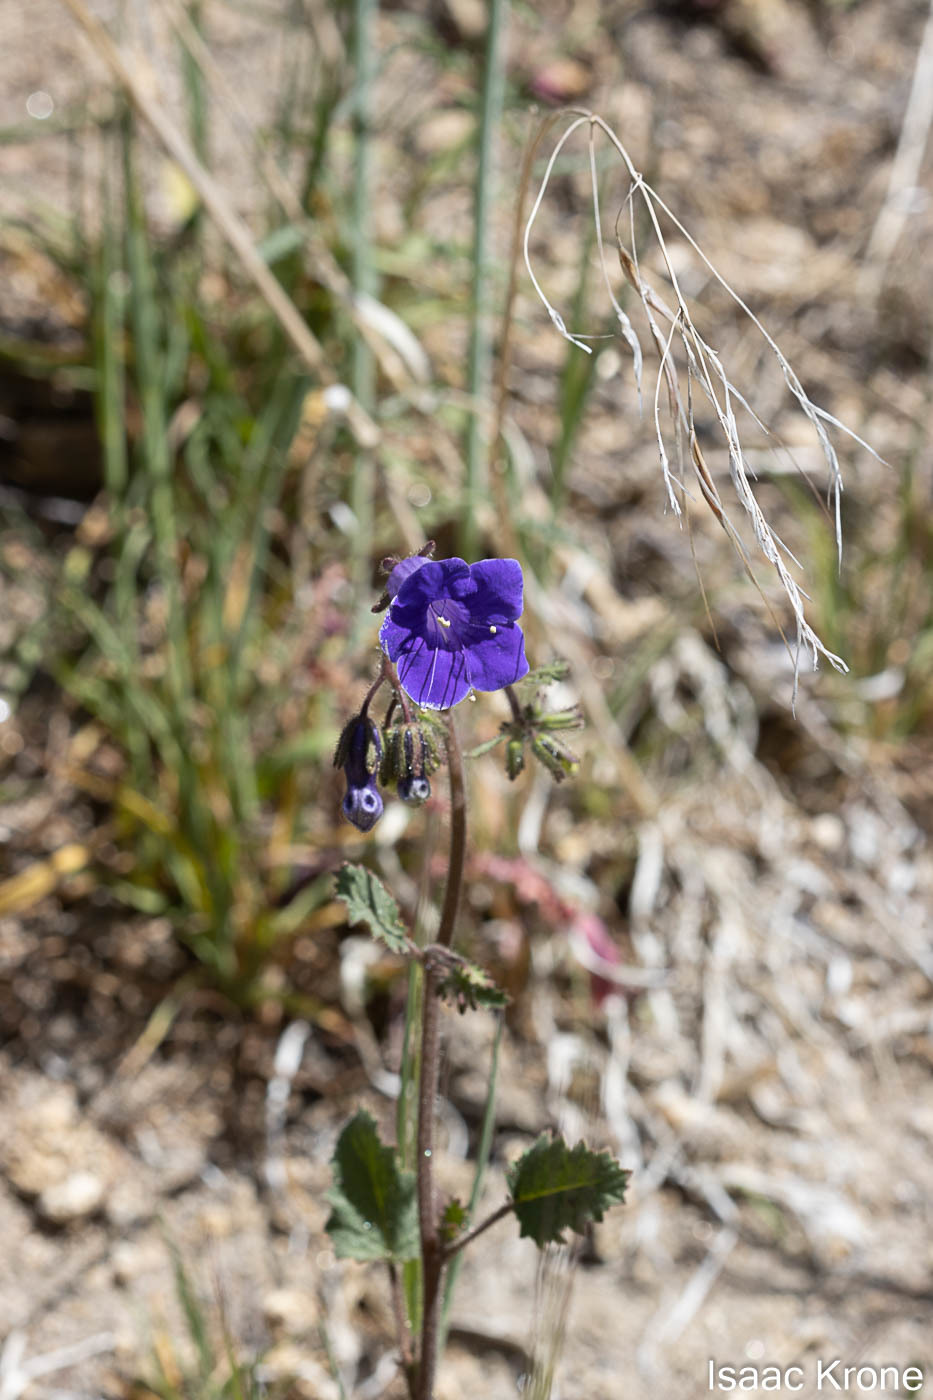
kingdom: Plantae
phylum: Tracheophyta
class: Magnoliopsida
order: Boraginales
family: Hydrophyllaceae
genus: Phacelia
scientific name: Phacelia minor
